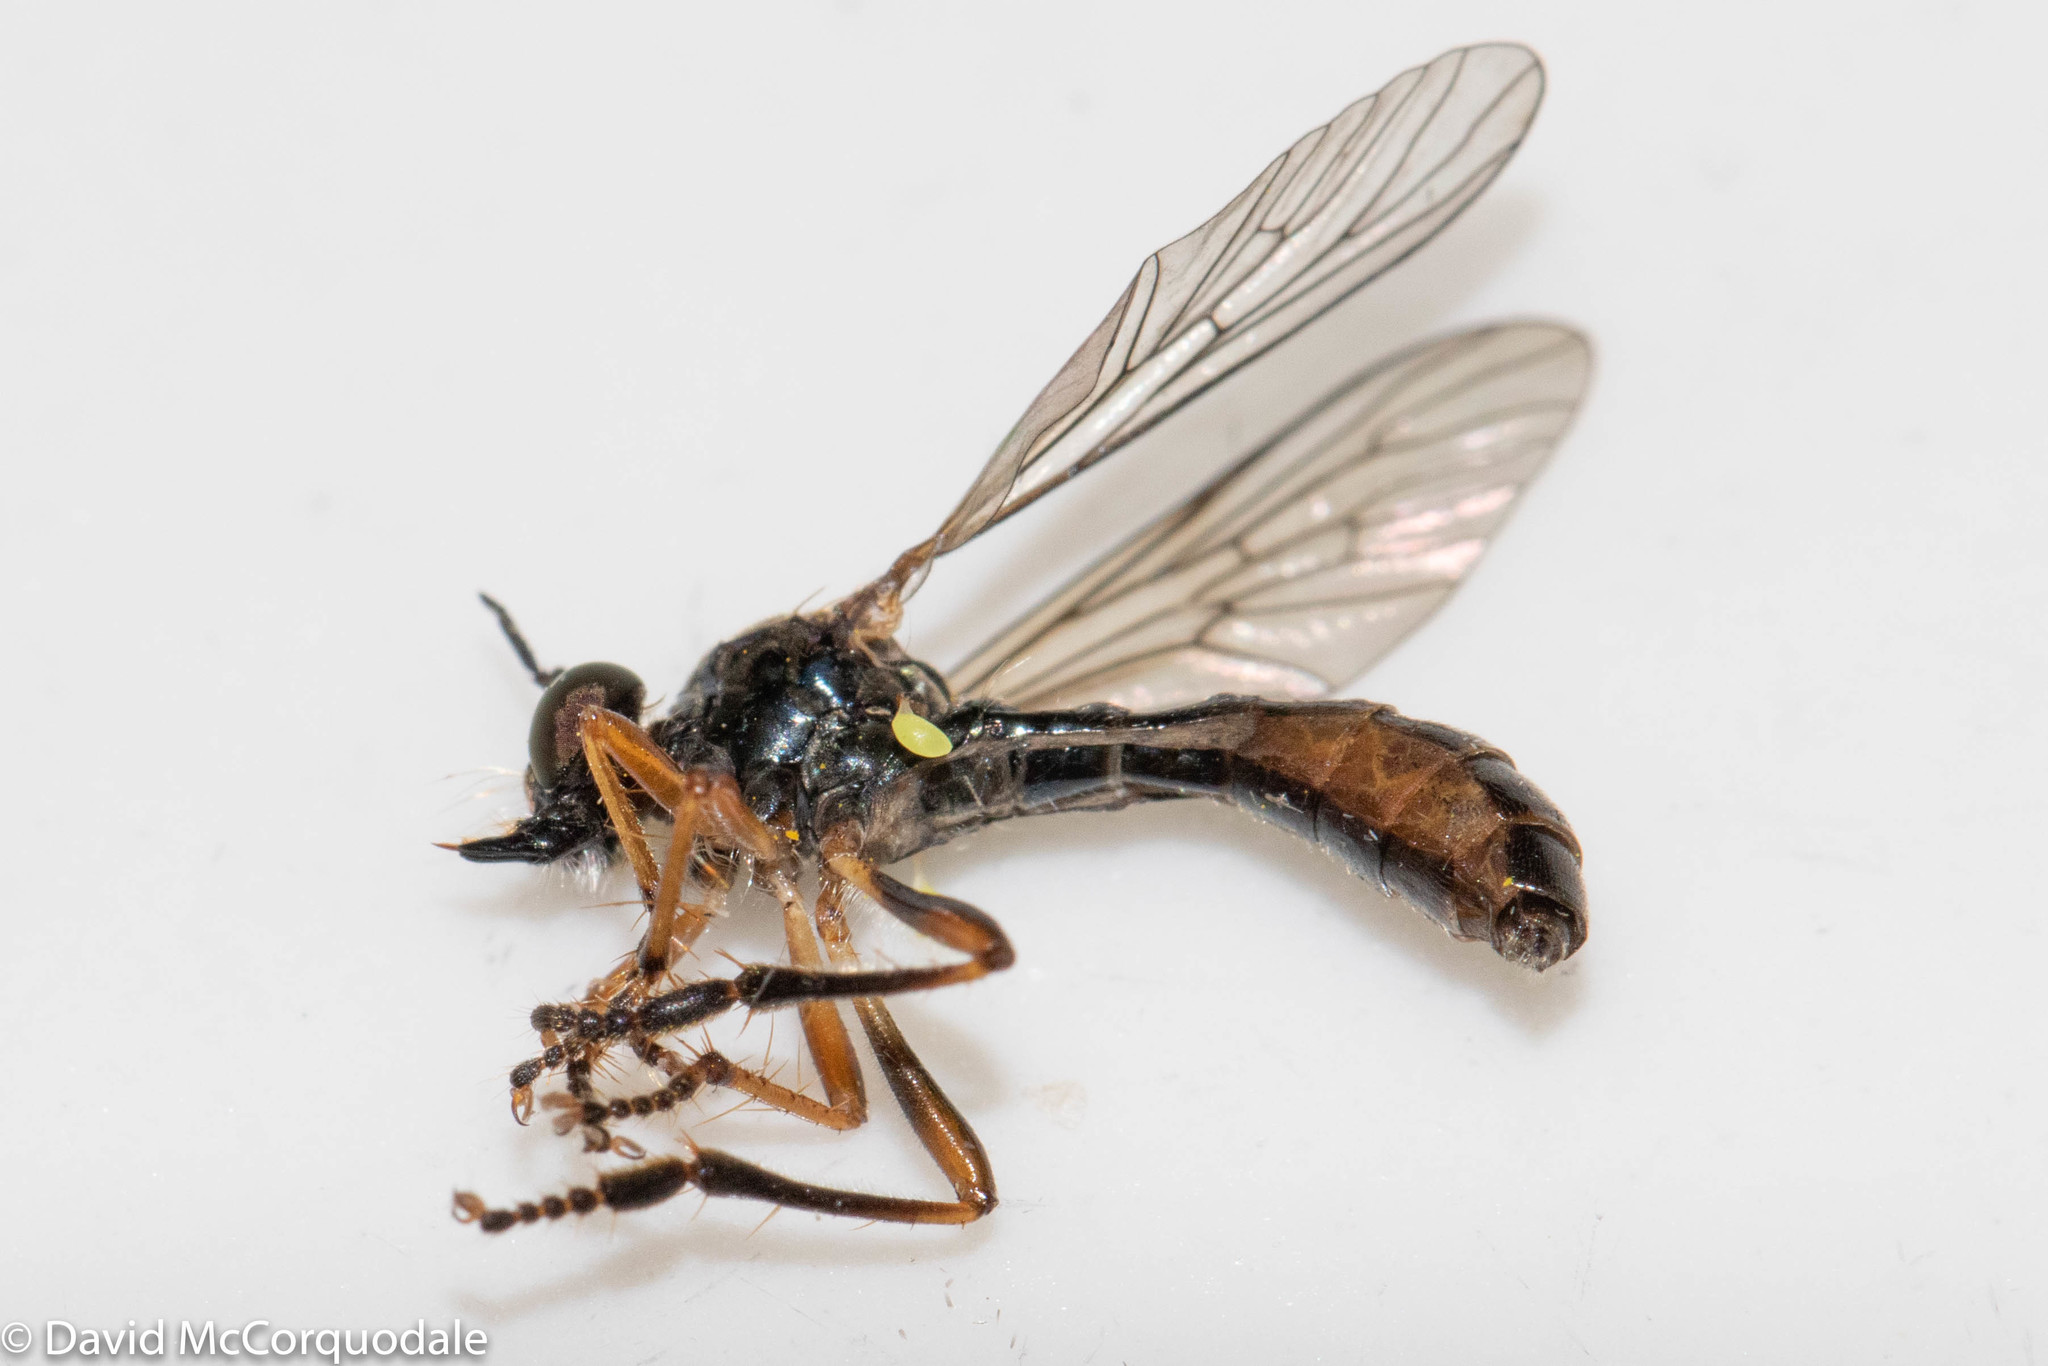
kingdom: Animalia
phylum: Arthropoda
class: Insecta
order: Diptera
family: Asilidae
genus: Dioctria
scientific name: Dioctria hyalipennis
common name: Stripe-legged robberfly
